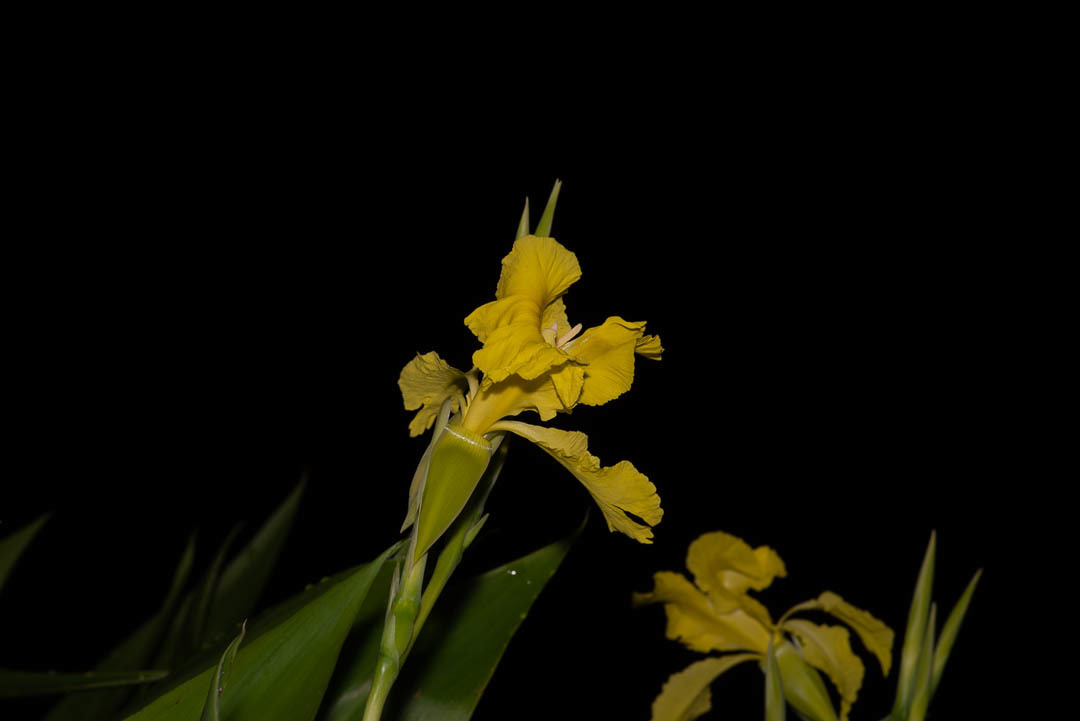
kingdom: Plantae
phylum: Tracheophyta
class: Liliopsida
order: Zingiberales
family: Cannaceae
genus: Canna
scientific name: Canna flaccida
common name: Bandana-of-the-everglades
